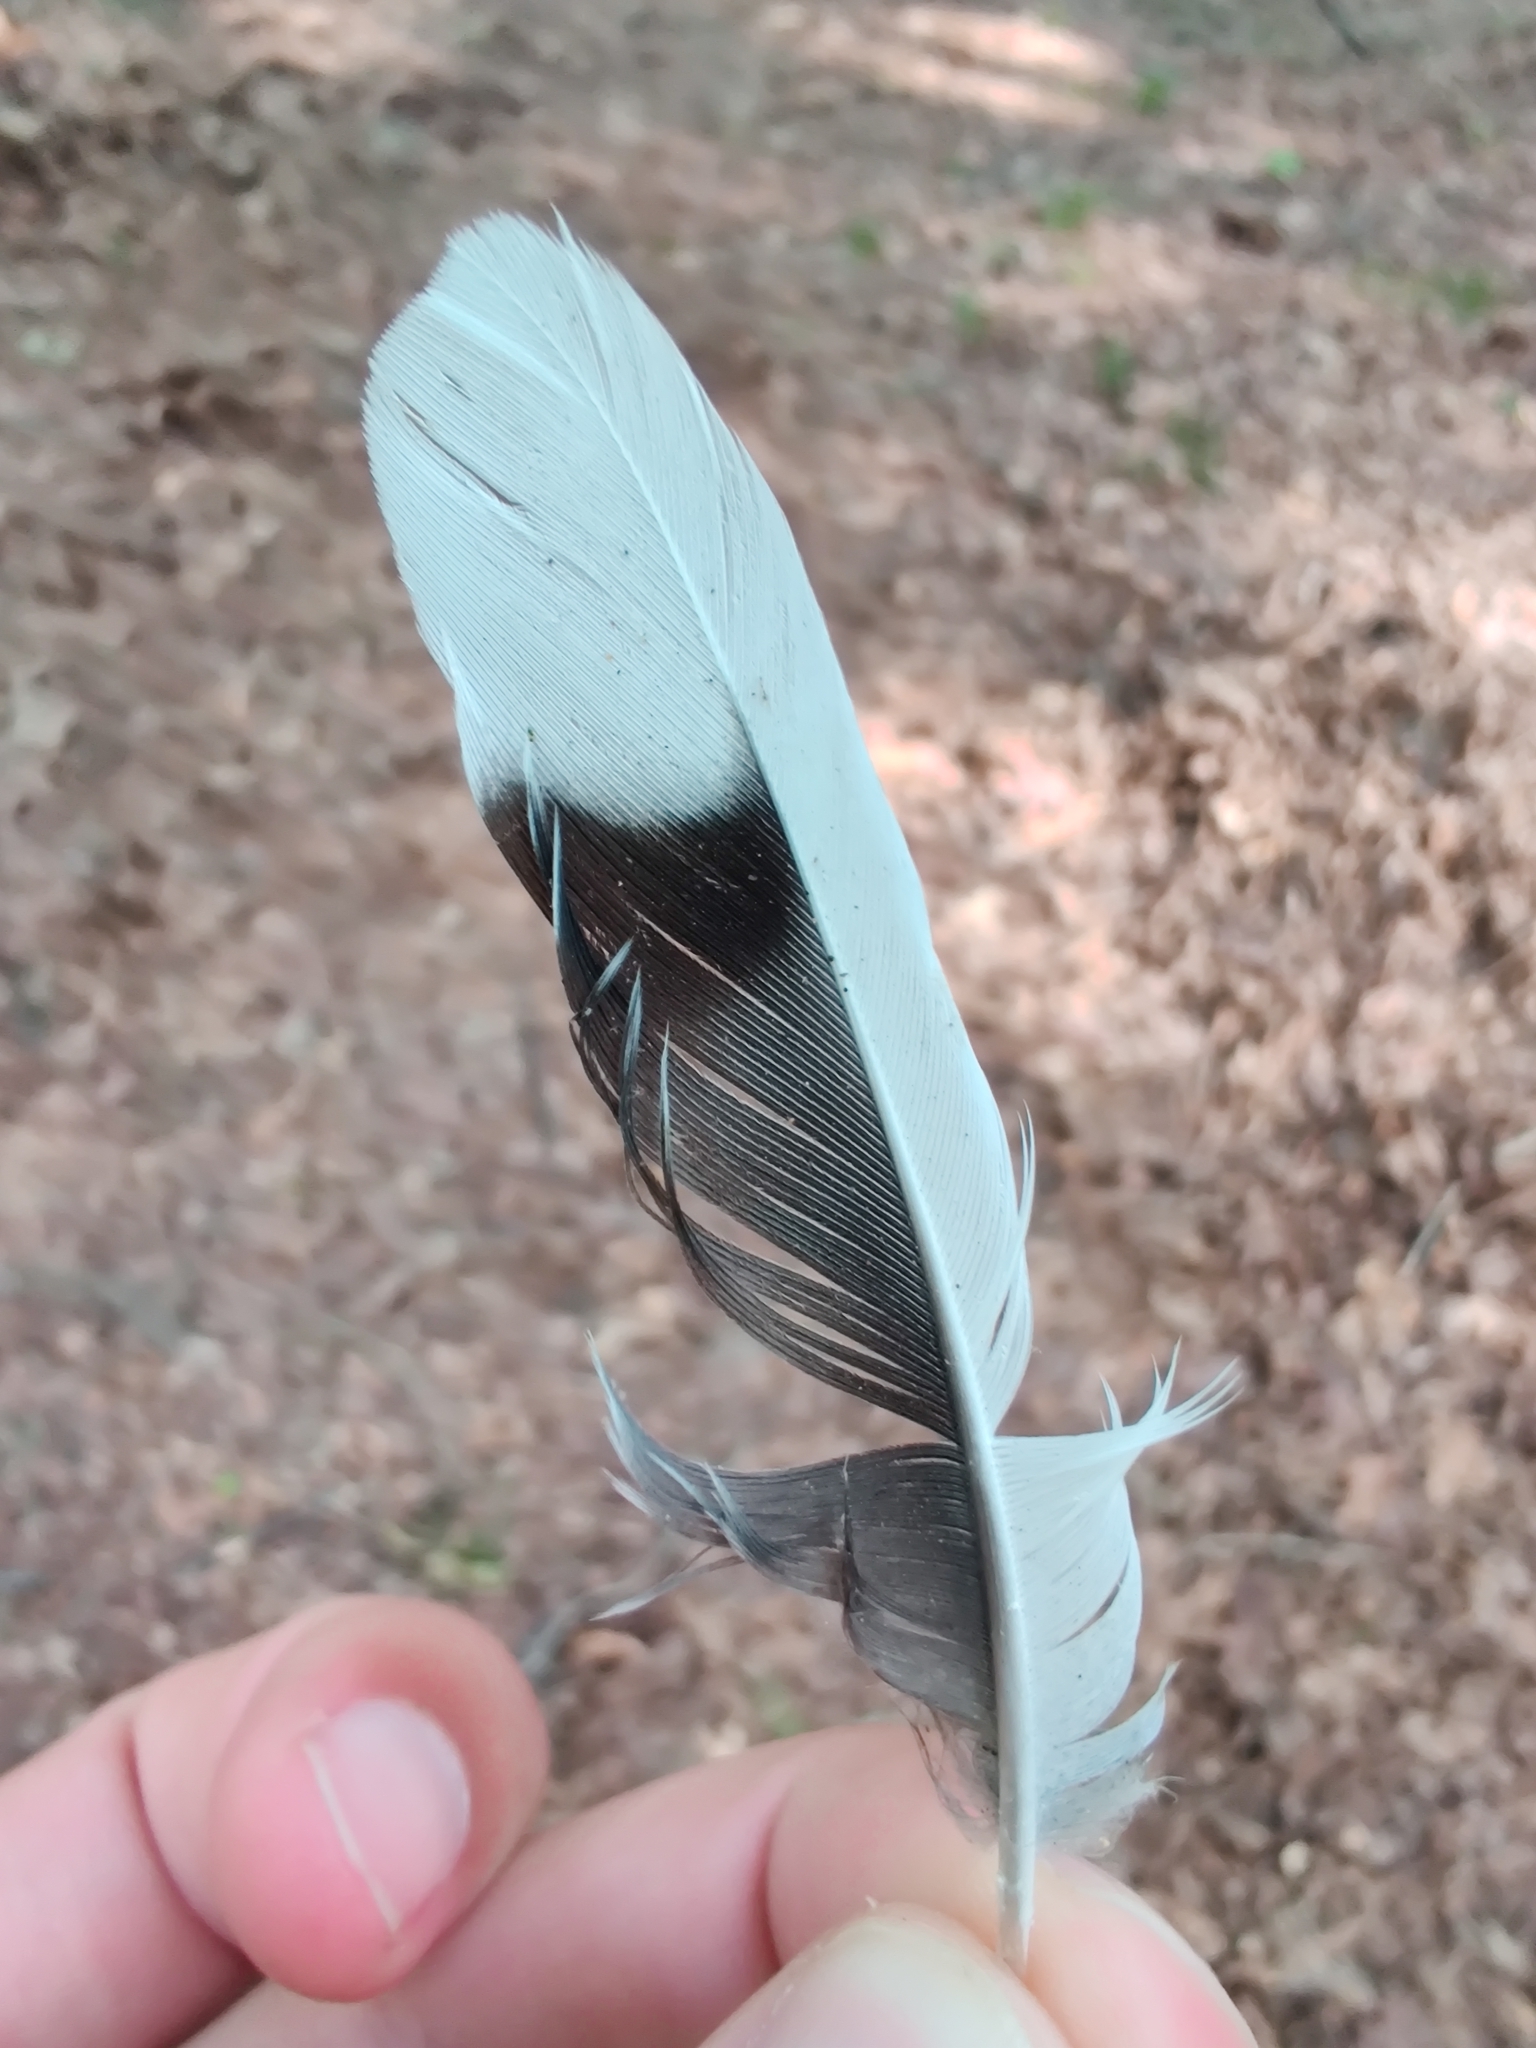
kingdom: Animalia
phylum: Chordata
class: Aves
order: Columbiformes
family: Columbidae
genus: Zenaida
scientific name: Zenaida macroura
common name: Mourning dove
